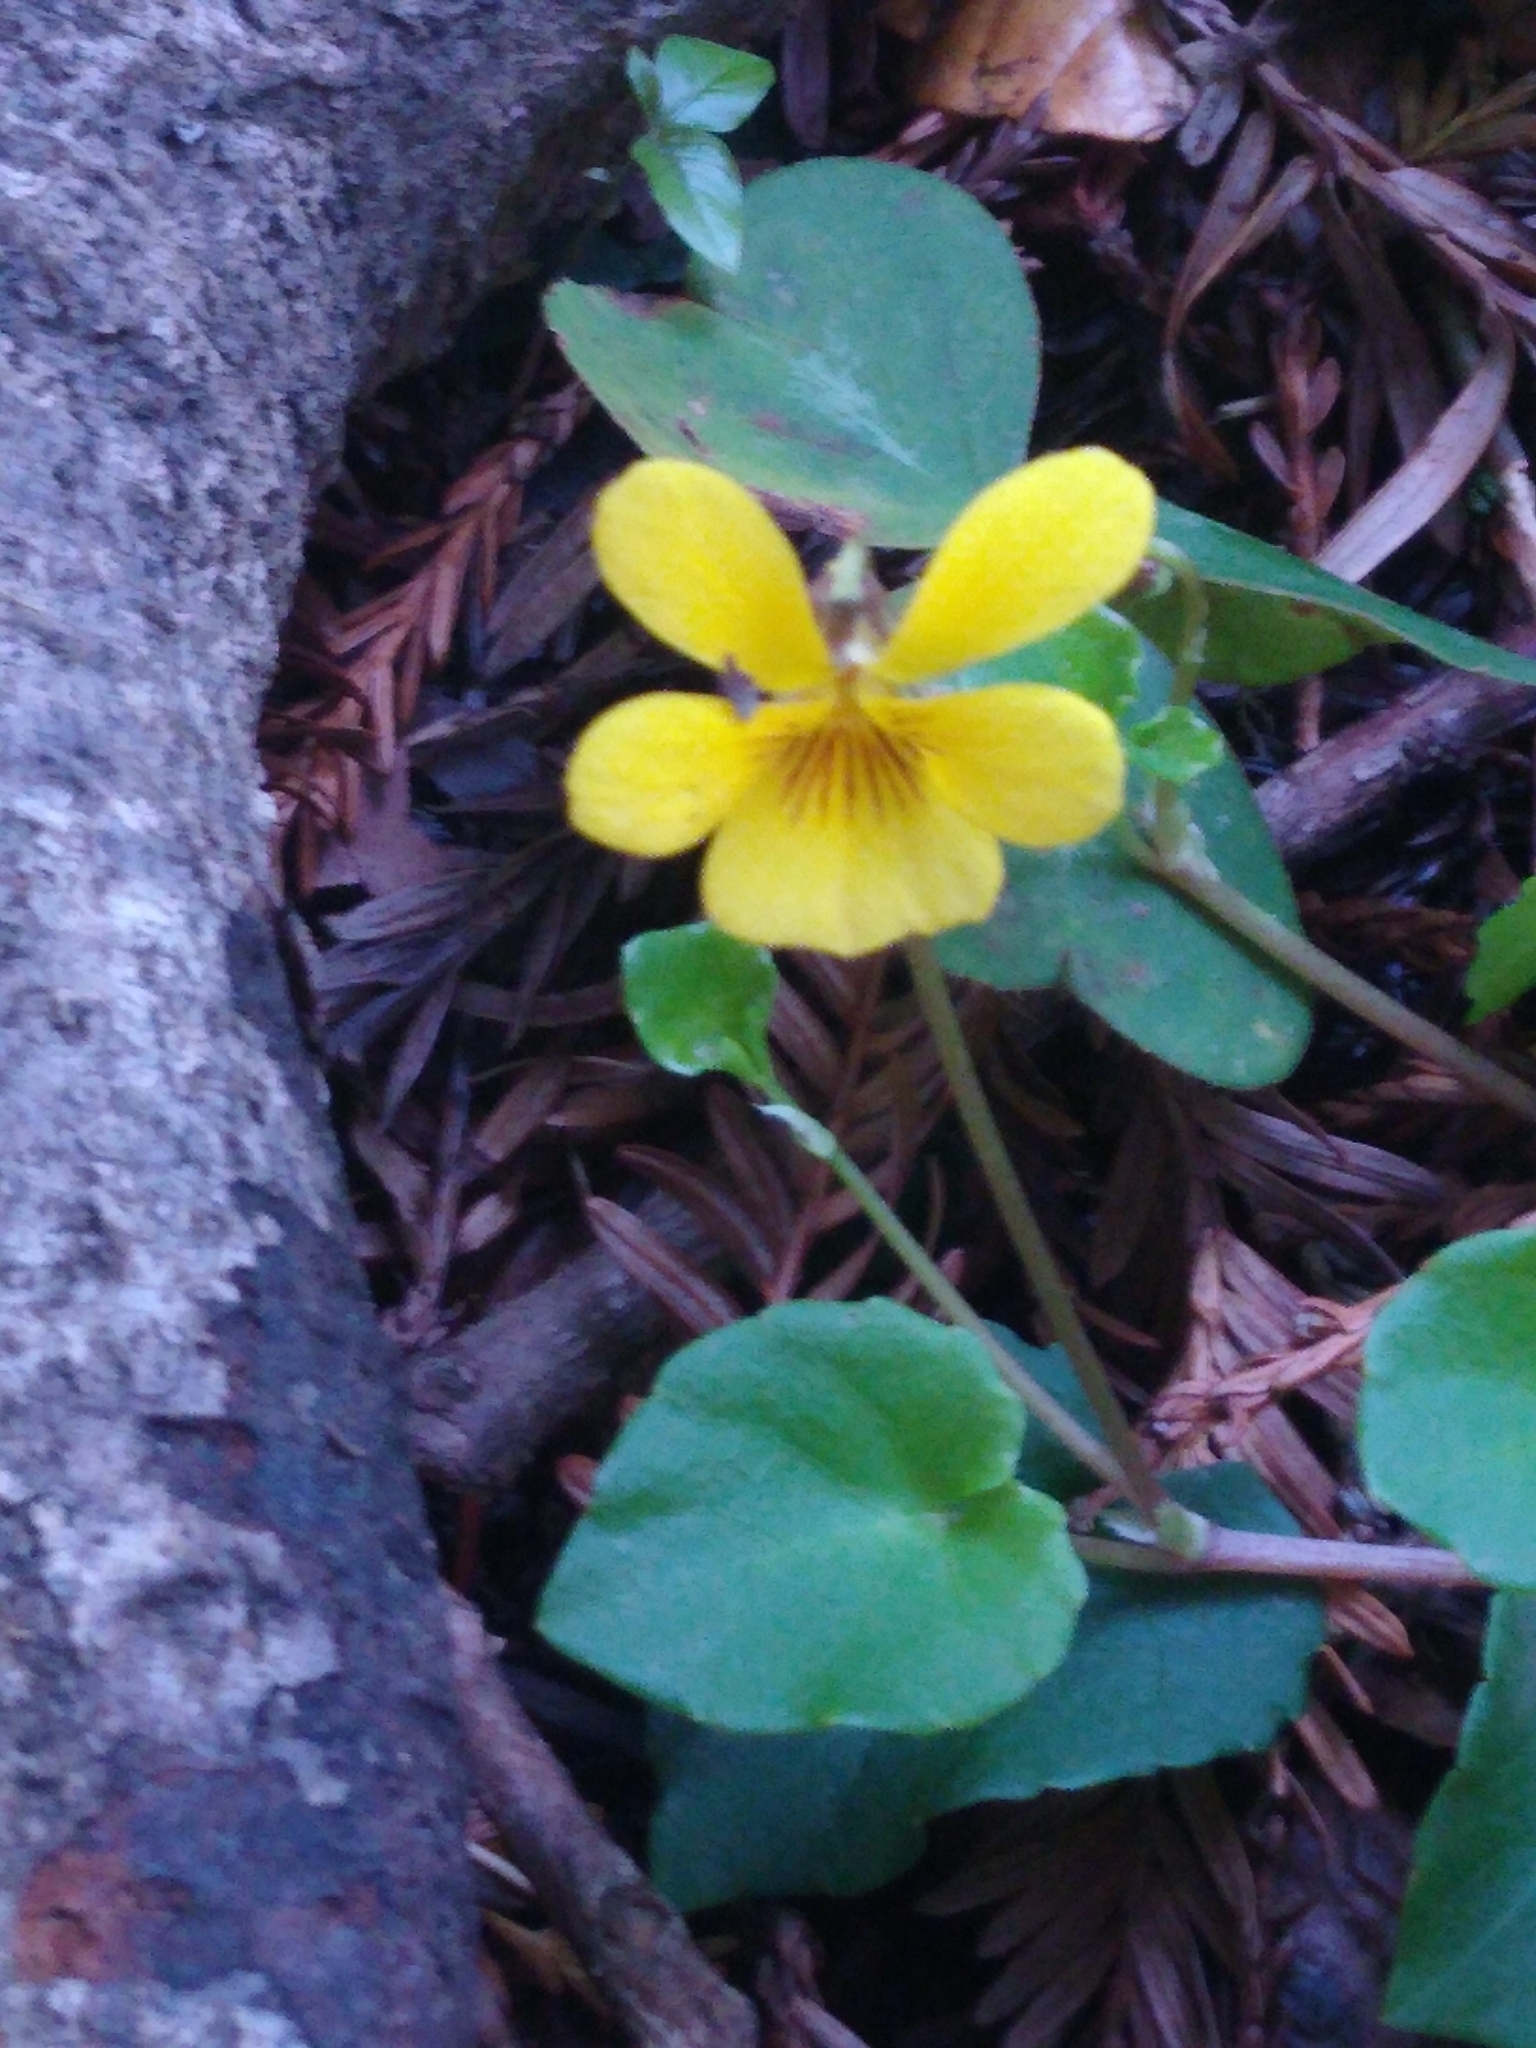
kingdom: Plantae
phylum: Tracheophyta
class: Magnoliopsida
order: Malpighiales
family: Violaceae
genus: Viola
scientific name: Viola sempervirens
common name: Evergreen violet
